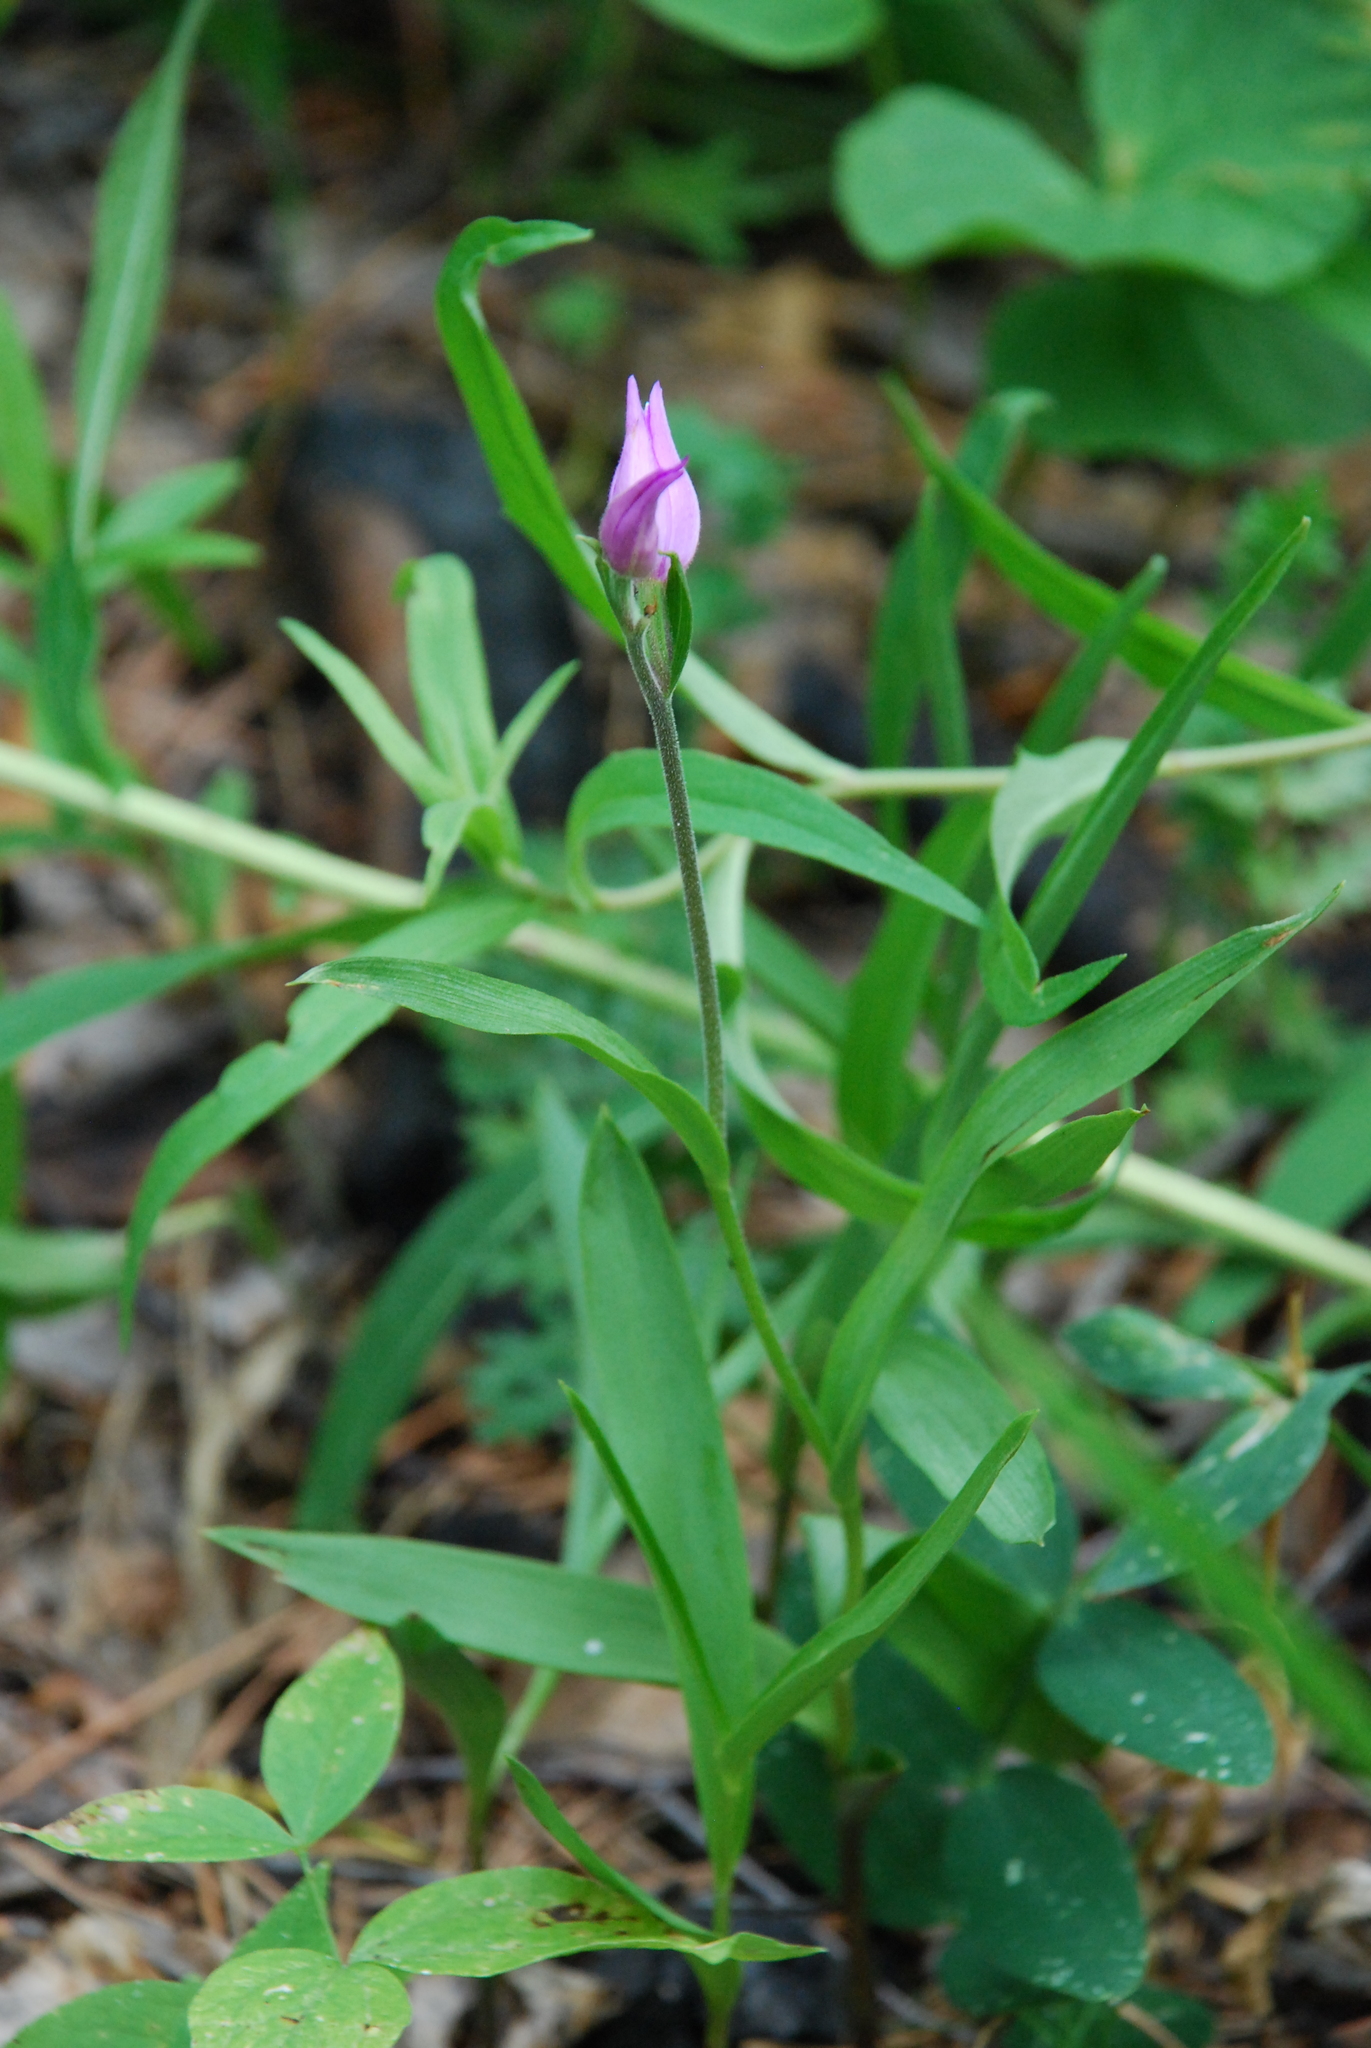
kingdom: Plantae
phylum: Tracheophyta
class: Liliopsida
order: Asparagales
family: Orchidaceae
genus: Cephalanthera
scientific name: Cephalanthera rubra
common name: Red helleborine
